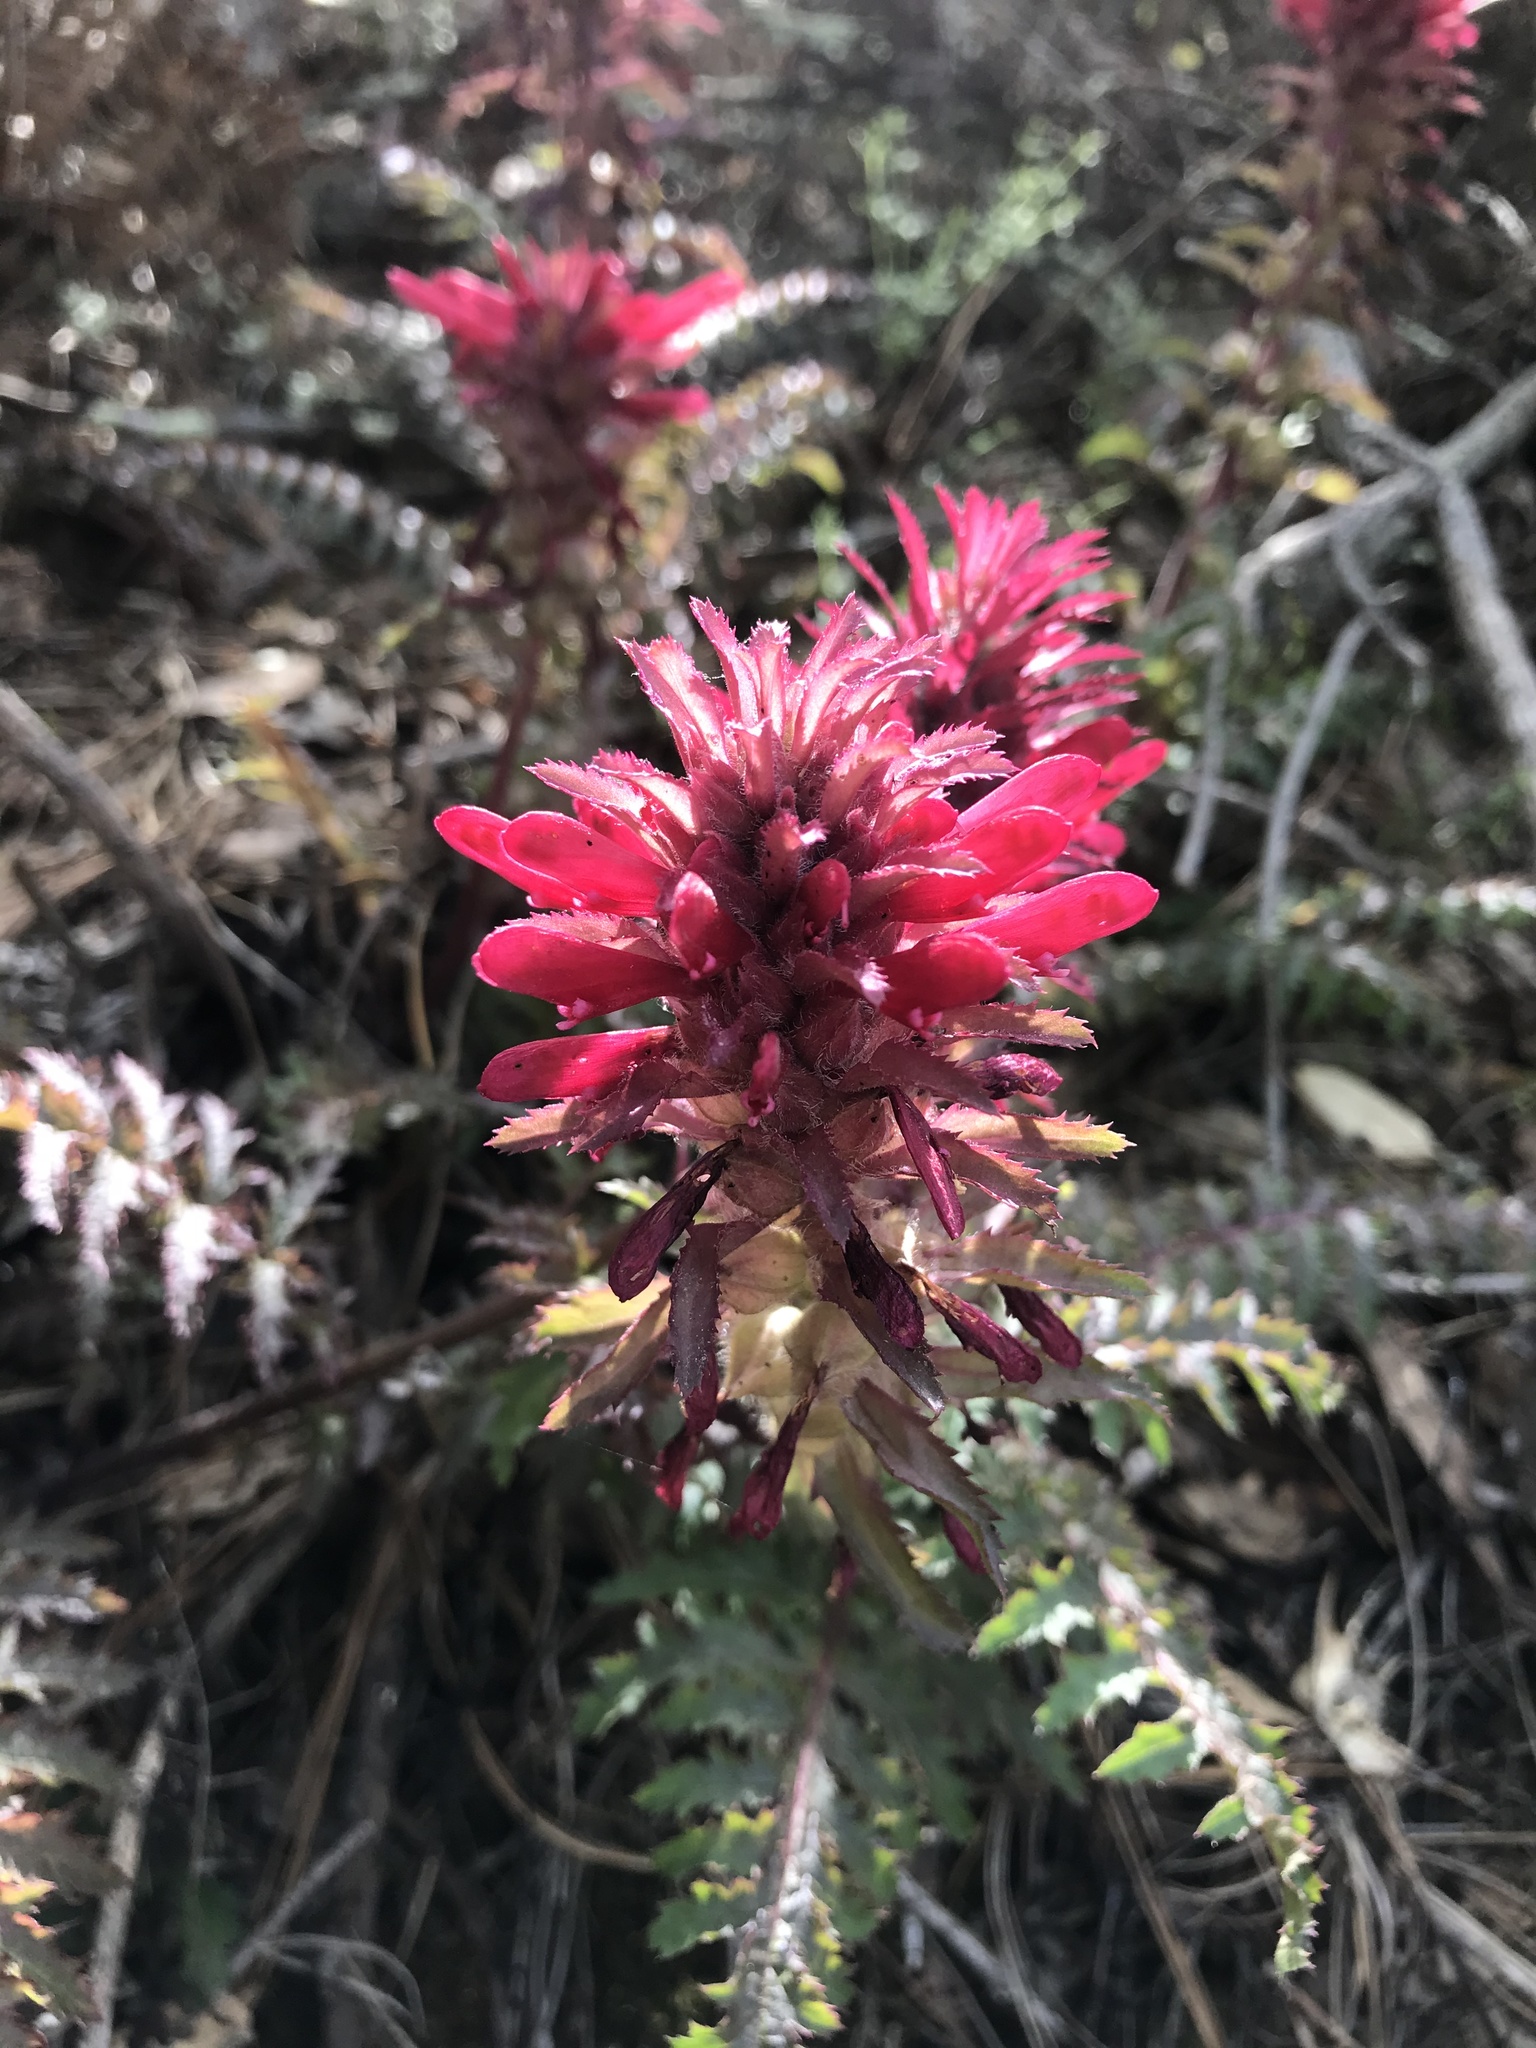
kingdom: Plantae
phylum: Tracheophyta
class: Magnoliopsida
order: Lamiales
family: Orobanchaceae
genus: Pedicularis
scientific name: Pedicularis densiflora
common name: Indian warrior
